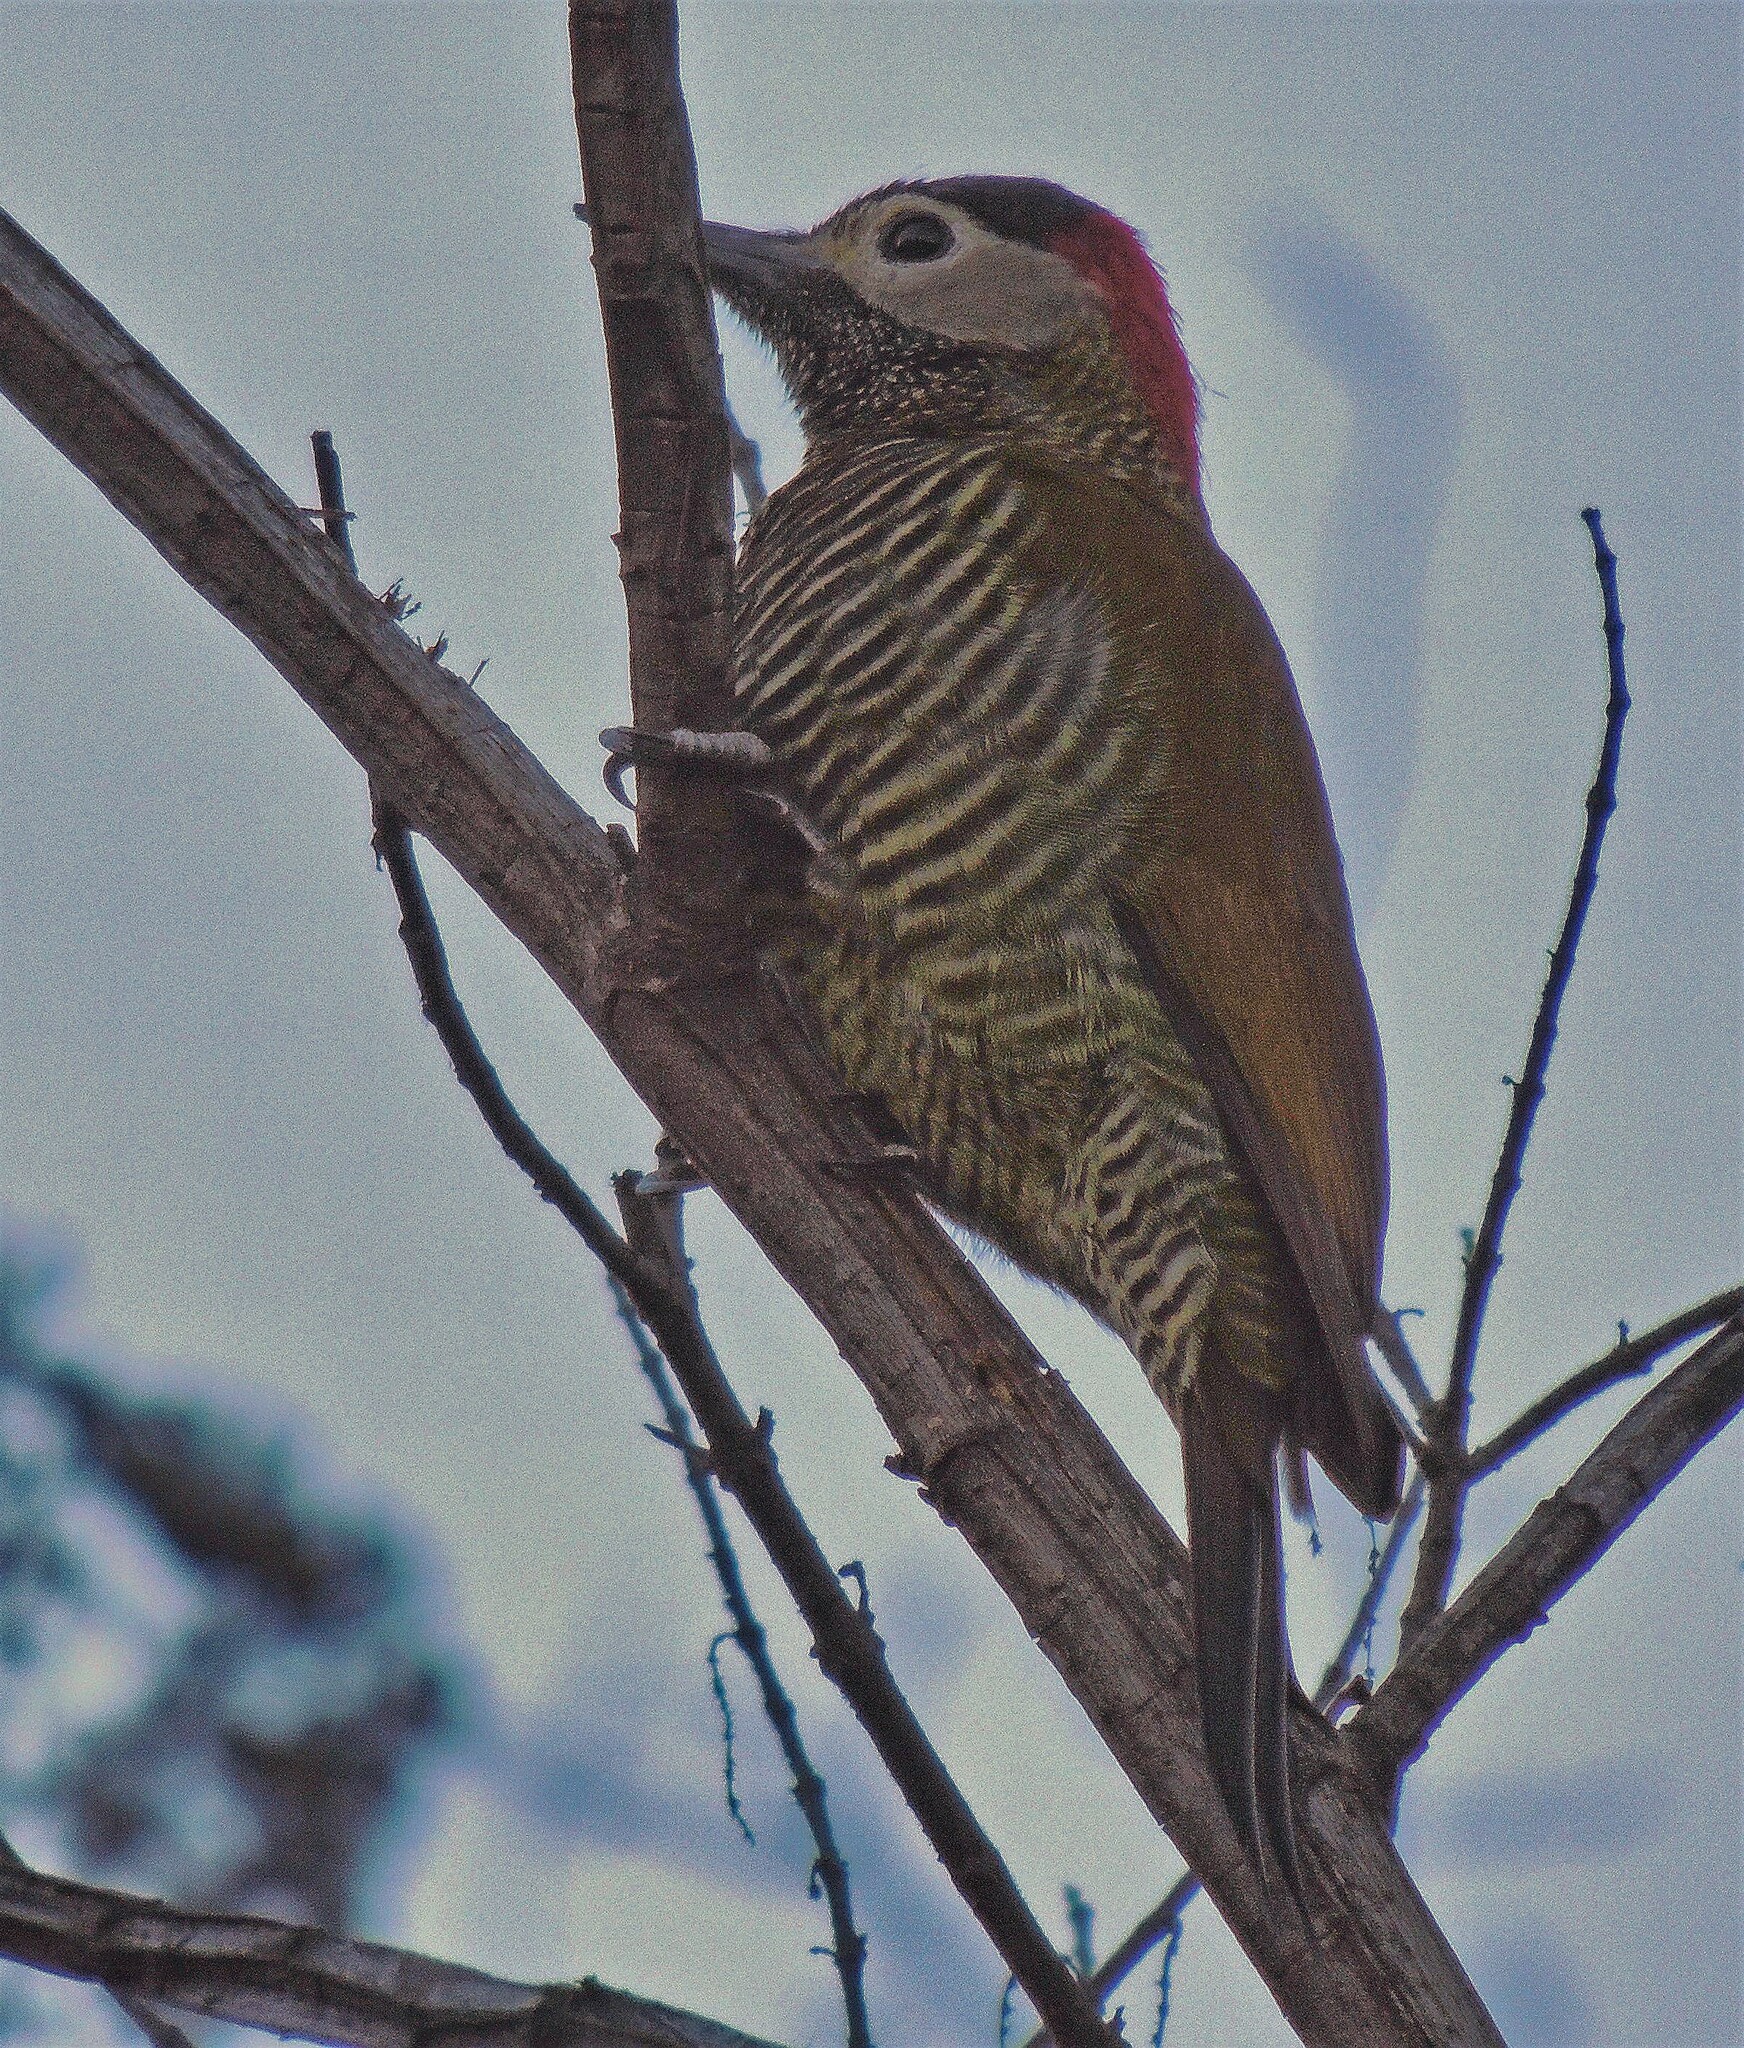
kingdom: Animalia
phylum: Chordata
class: Aves
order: Piciformes
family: Picidae
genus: Colaptes
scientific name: Colaptes rubiginosus
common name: Golden-olive woodpecker
